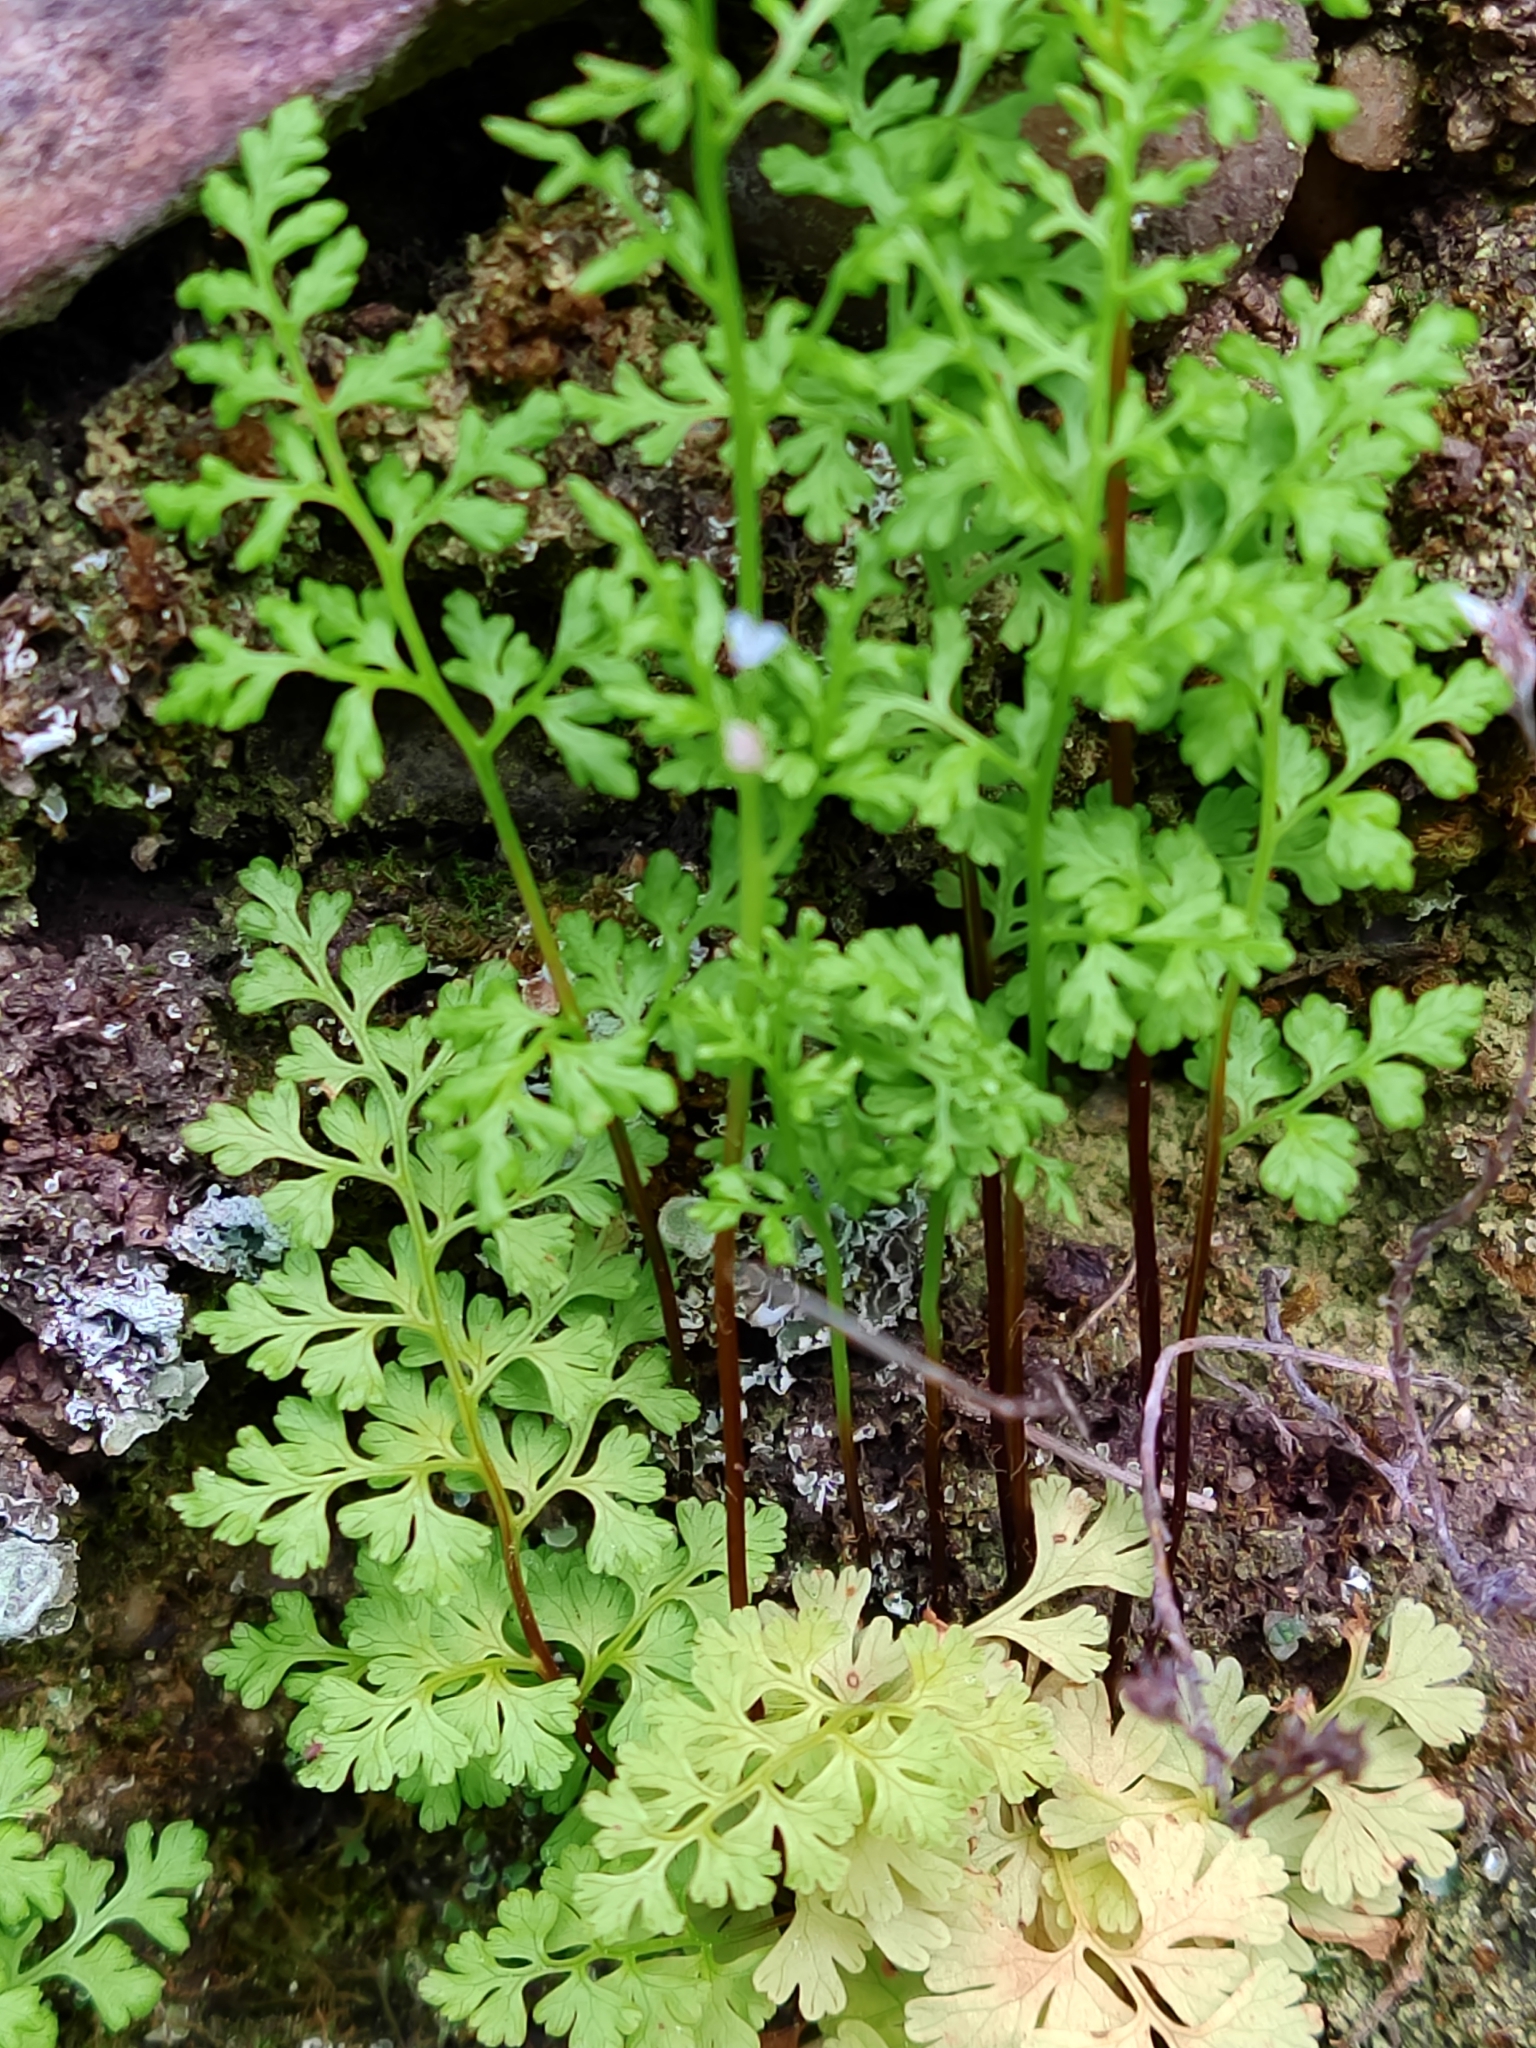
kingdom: Plantae
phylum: Tracheophyta
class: Polypodiopsida
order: Polypodiales
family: Pteridaceae
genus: Anogramma
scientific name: Anogramma leptophylla
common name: Jersey fern
